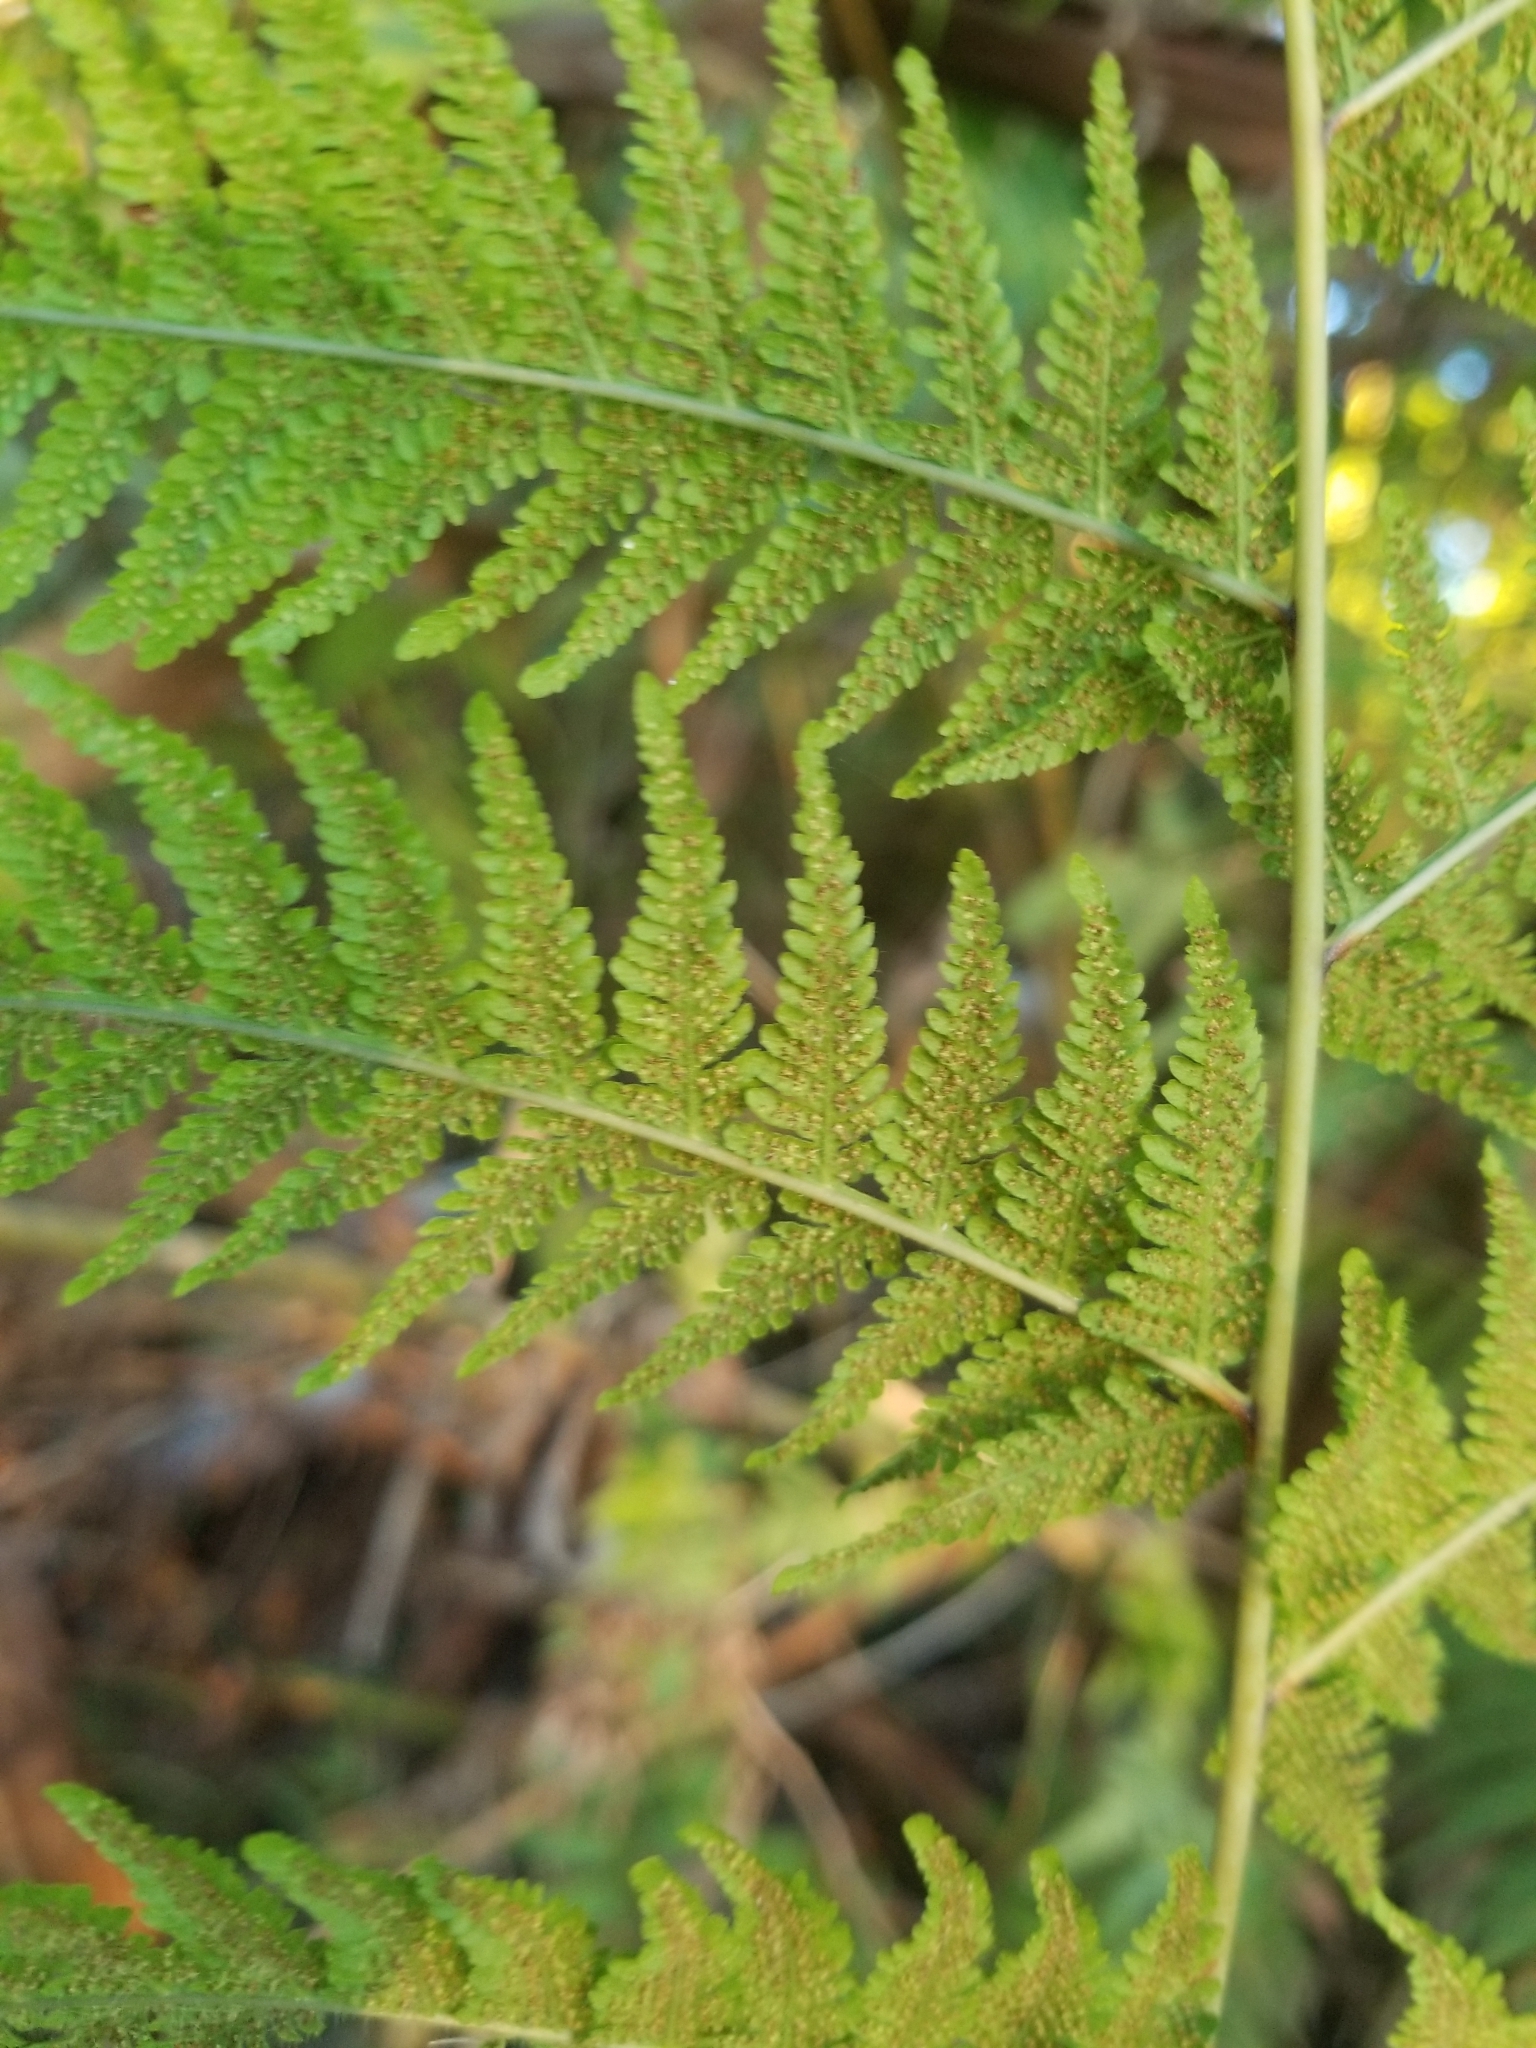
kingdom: Plantae
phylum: Tracheophyta
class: Polypodiopsida
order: Polypodiales
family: Thelypteridaceae
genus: Macrothelypteris
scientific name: Macrothelypteris torresiana
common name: Swordfern
